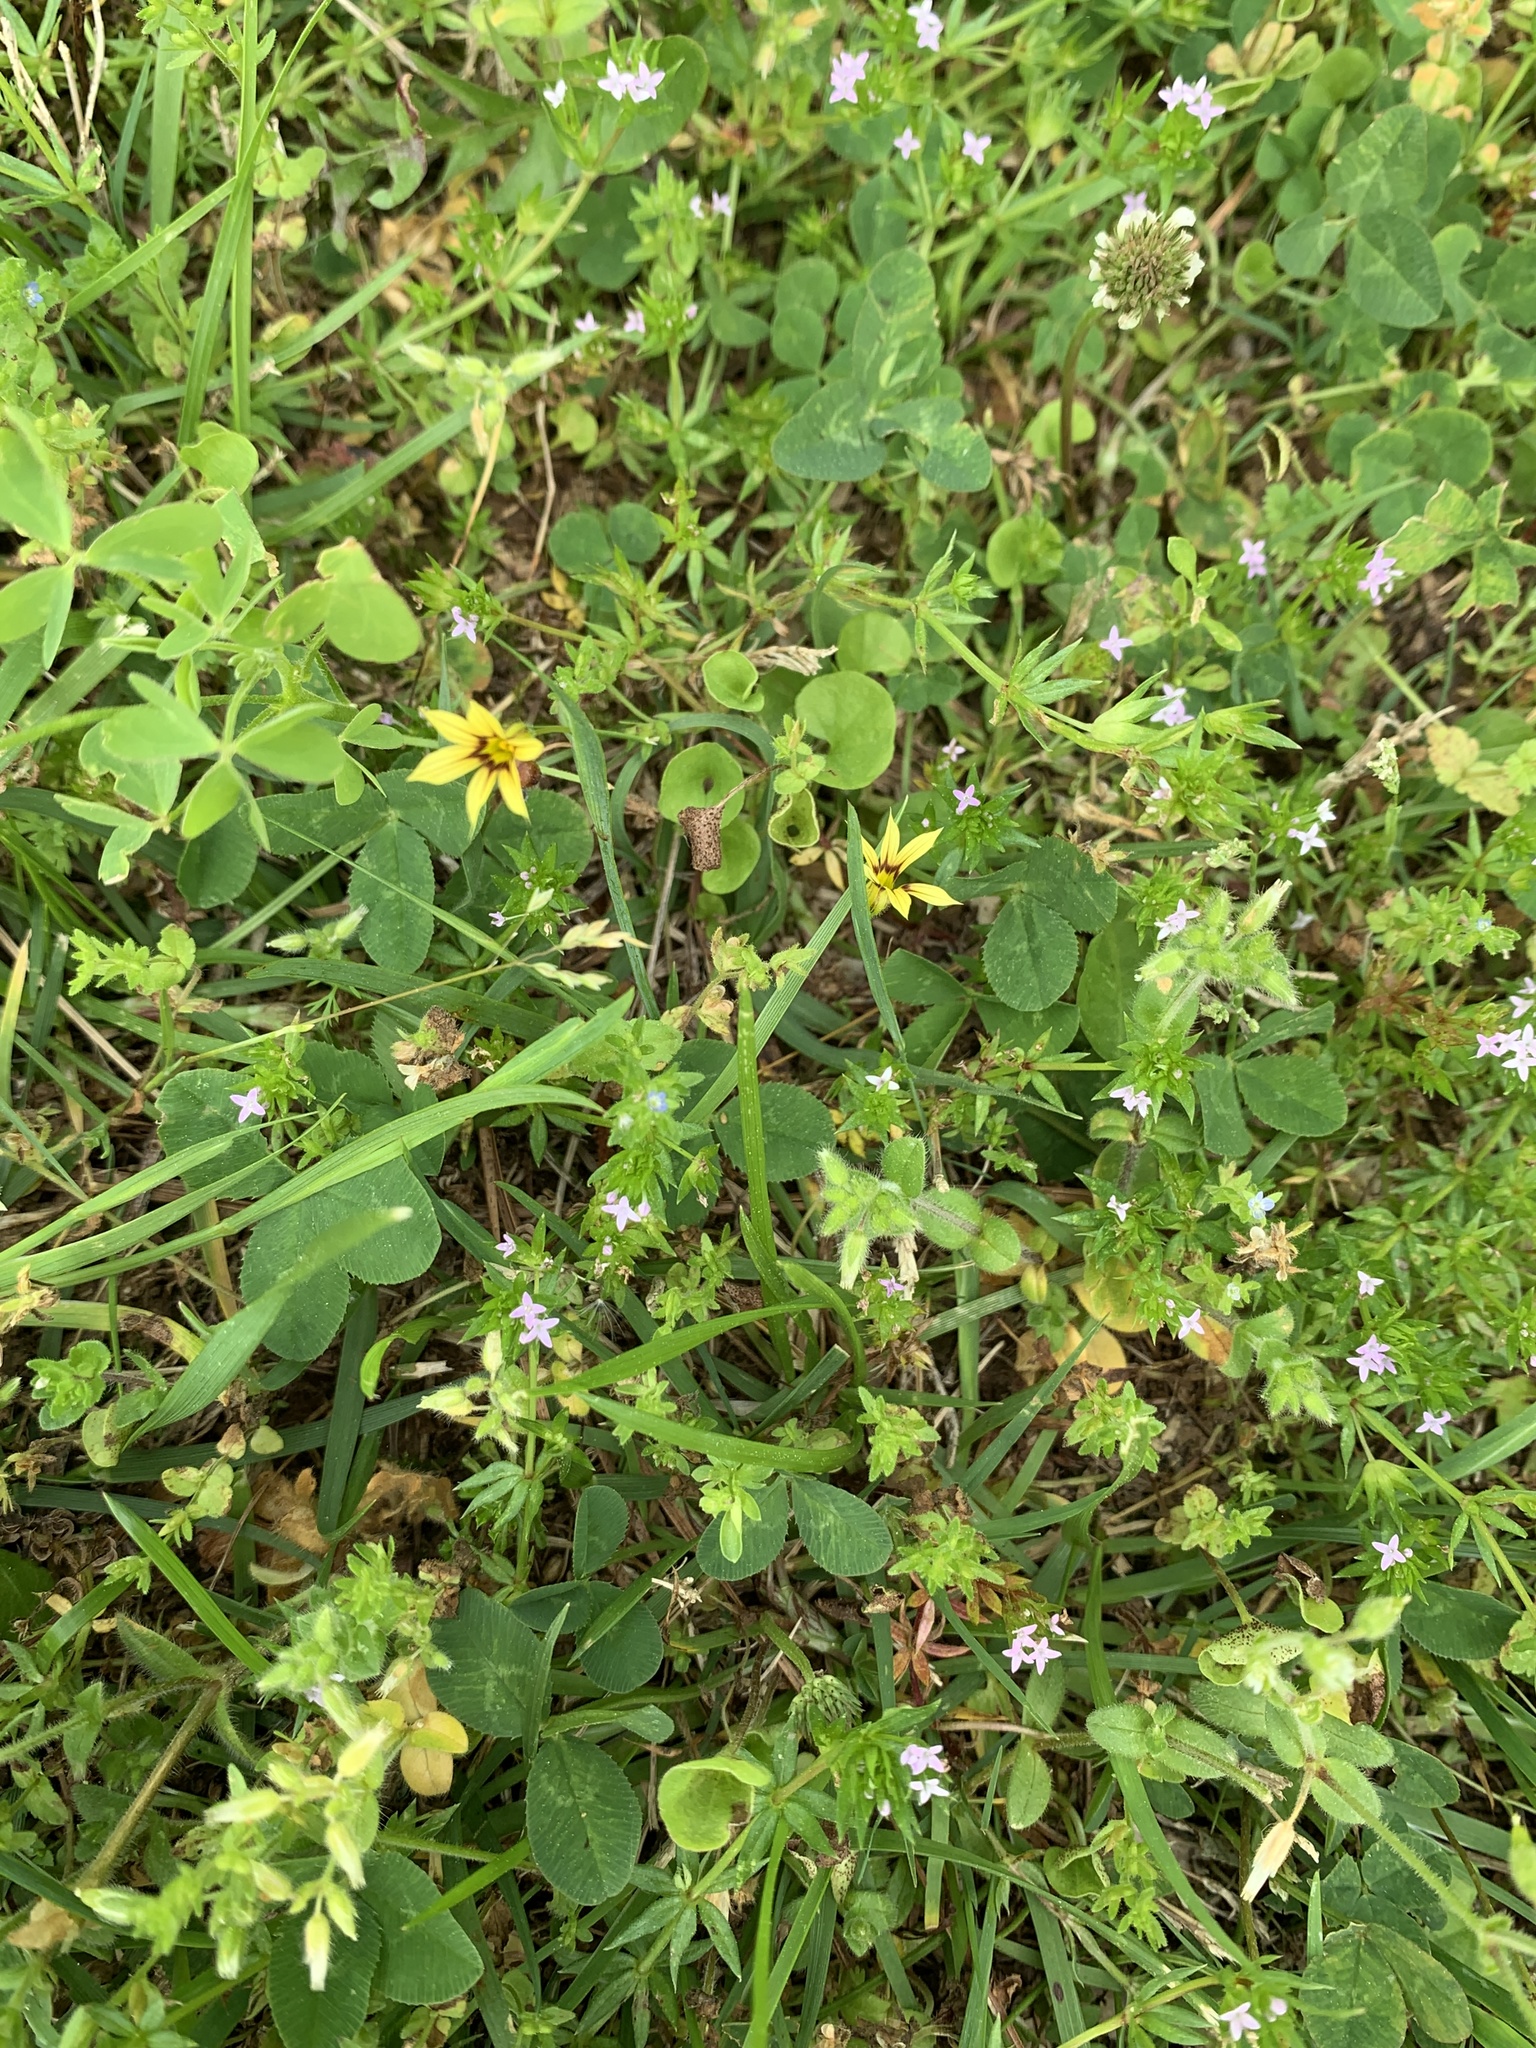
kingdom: Plantae
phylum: Tracheophyta
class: Liliopsida
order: Asparagales
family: Iridaceae
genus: Sisyrinchium
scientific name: Sisyrinchium micranthum
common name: Bermuda pigroot
